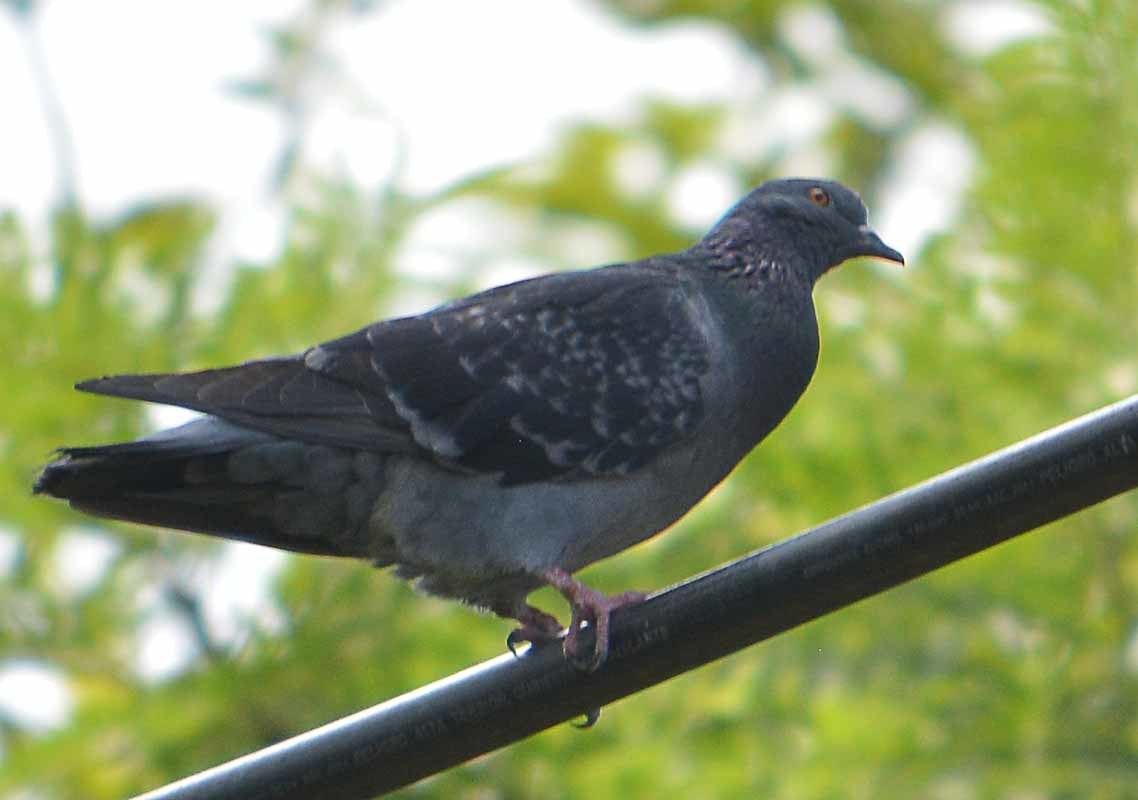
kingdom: Animalia
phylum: Chordata
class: Aves
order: Columbiformes
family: Columbidae
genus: Columba
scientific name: Columba livia
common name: Rock pigeon
